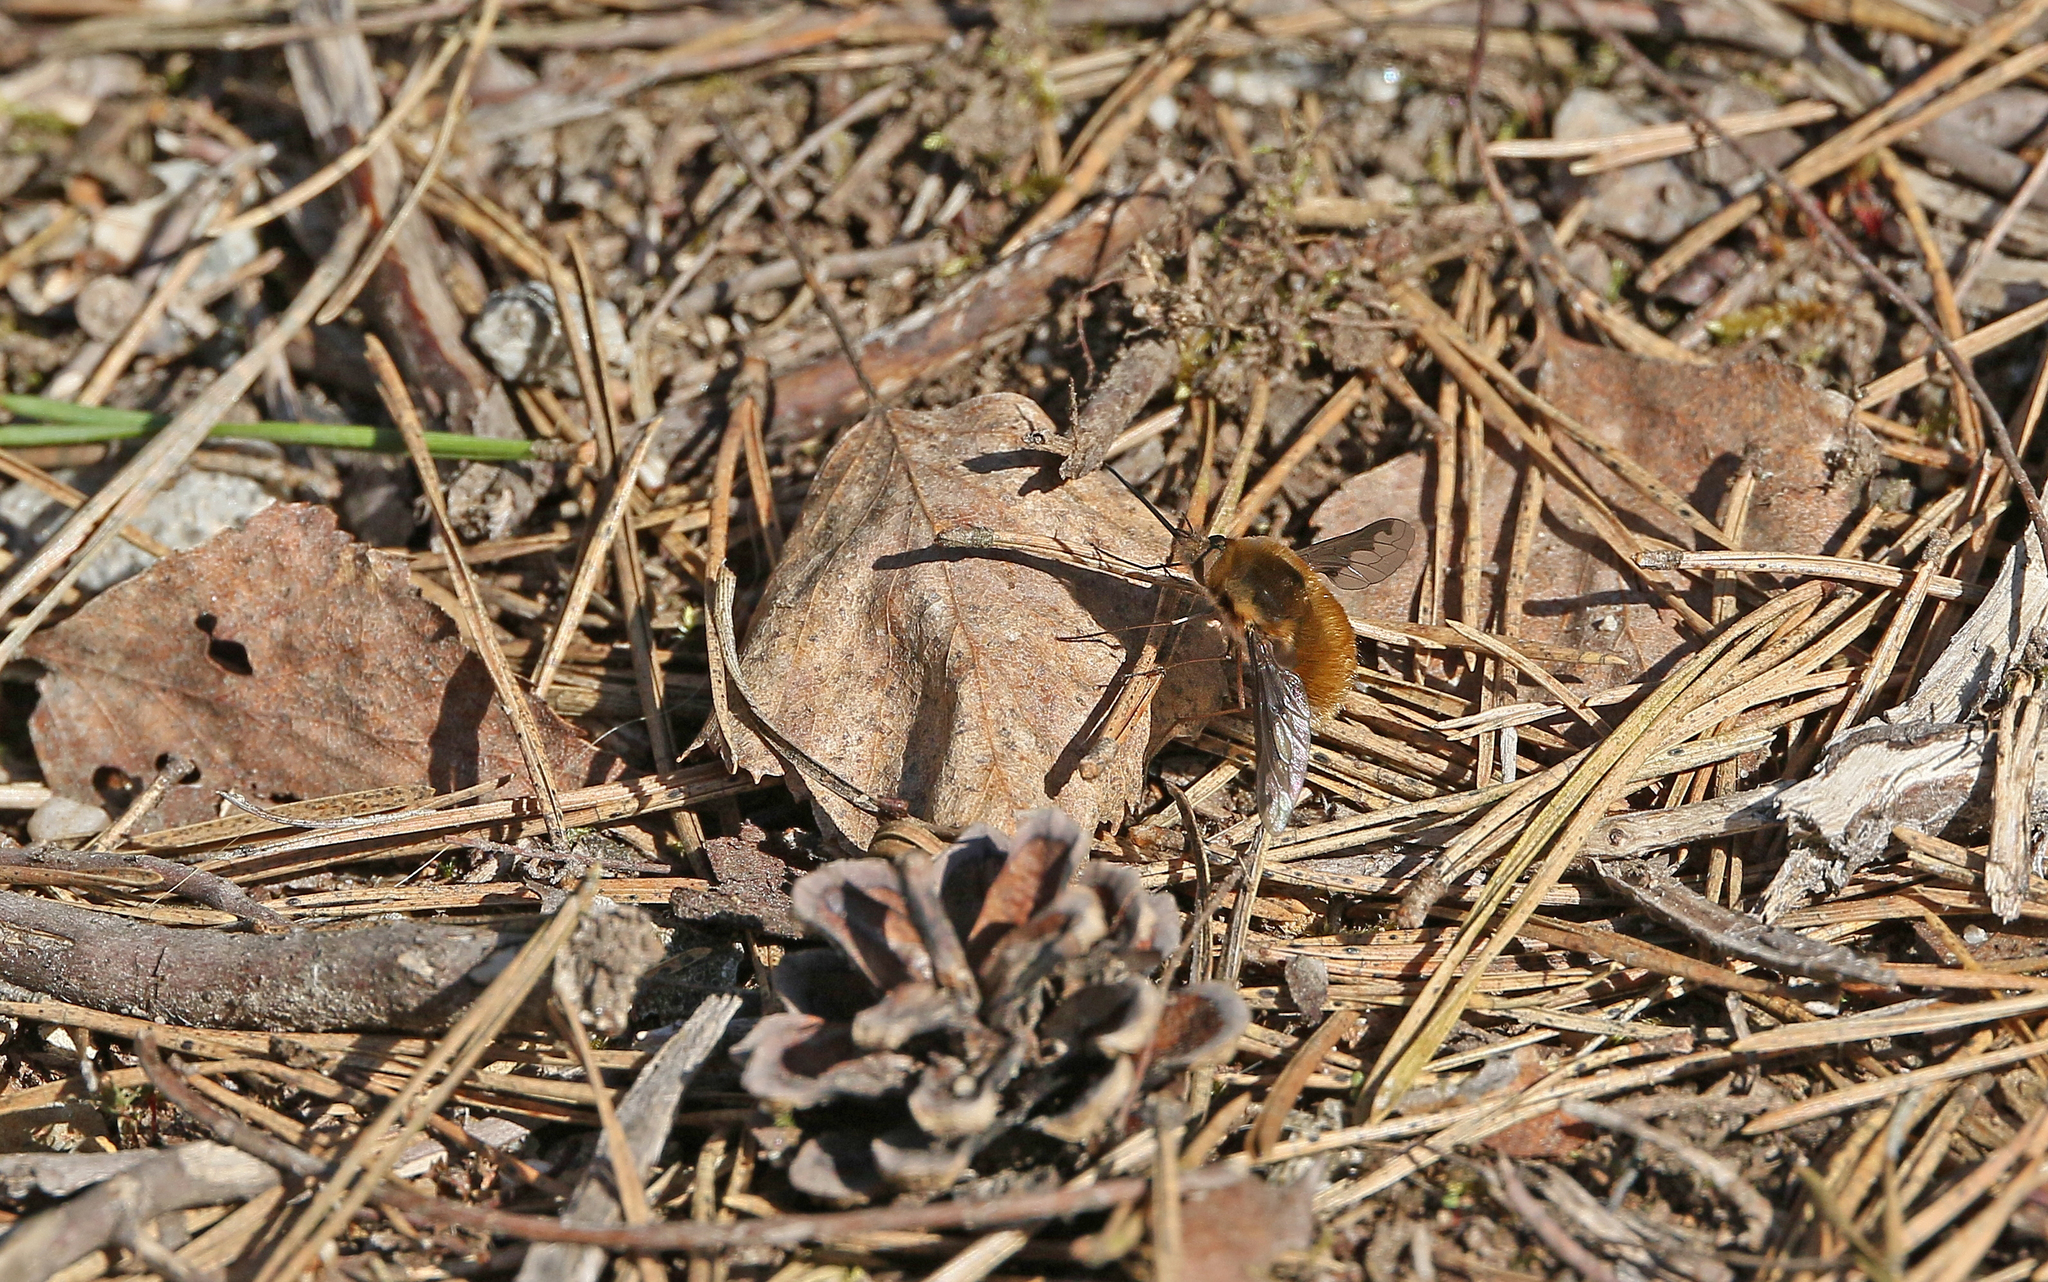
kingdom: Animalia
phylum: Arthropoda
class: Insecta
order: Diptera
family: Bombyliidae
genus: Bombylius
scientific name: Bombylius major
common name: Bee fly
